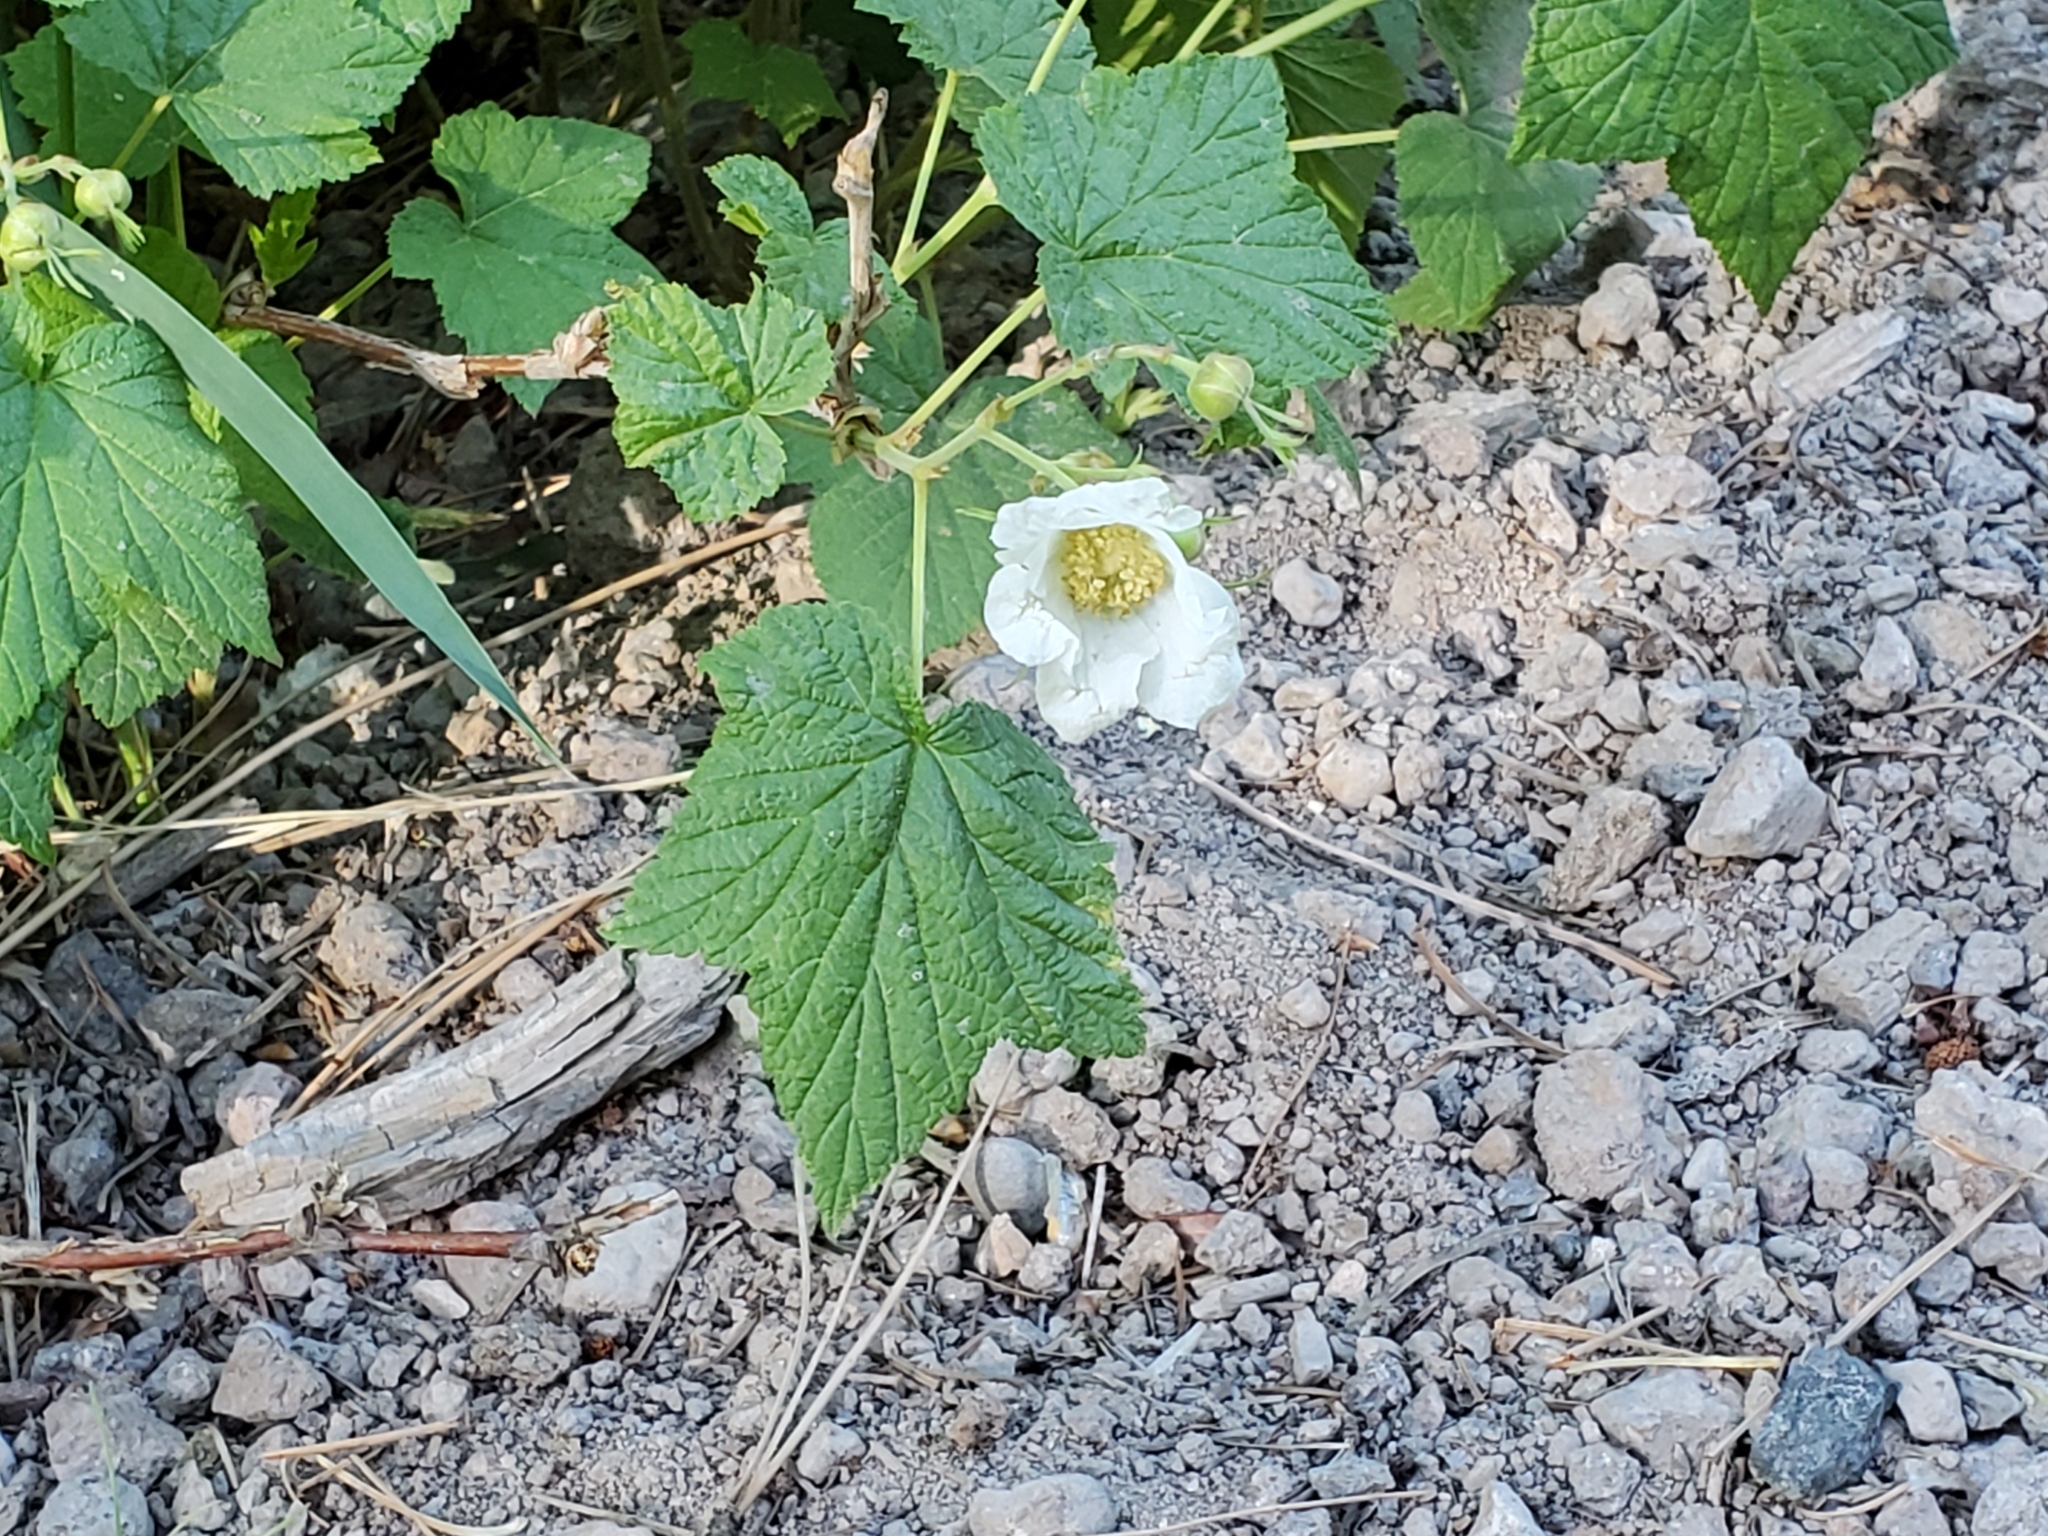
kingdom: Plantae
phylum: Tracheophyta
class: Magnoliopsida
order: Rosales
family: Rosaceae
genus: Rubus
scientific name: Rubus parviflorus
